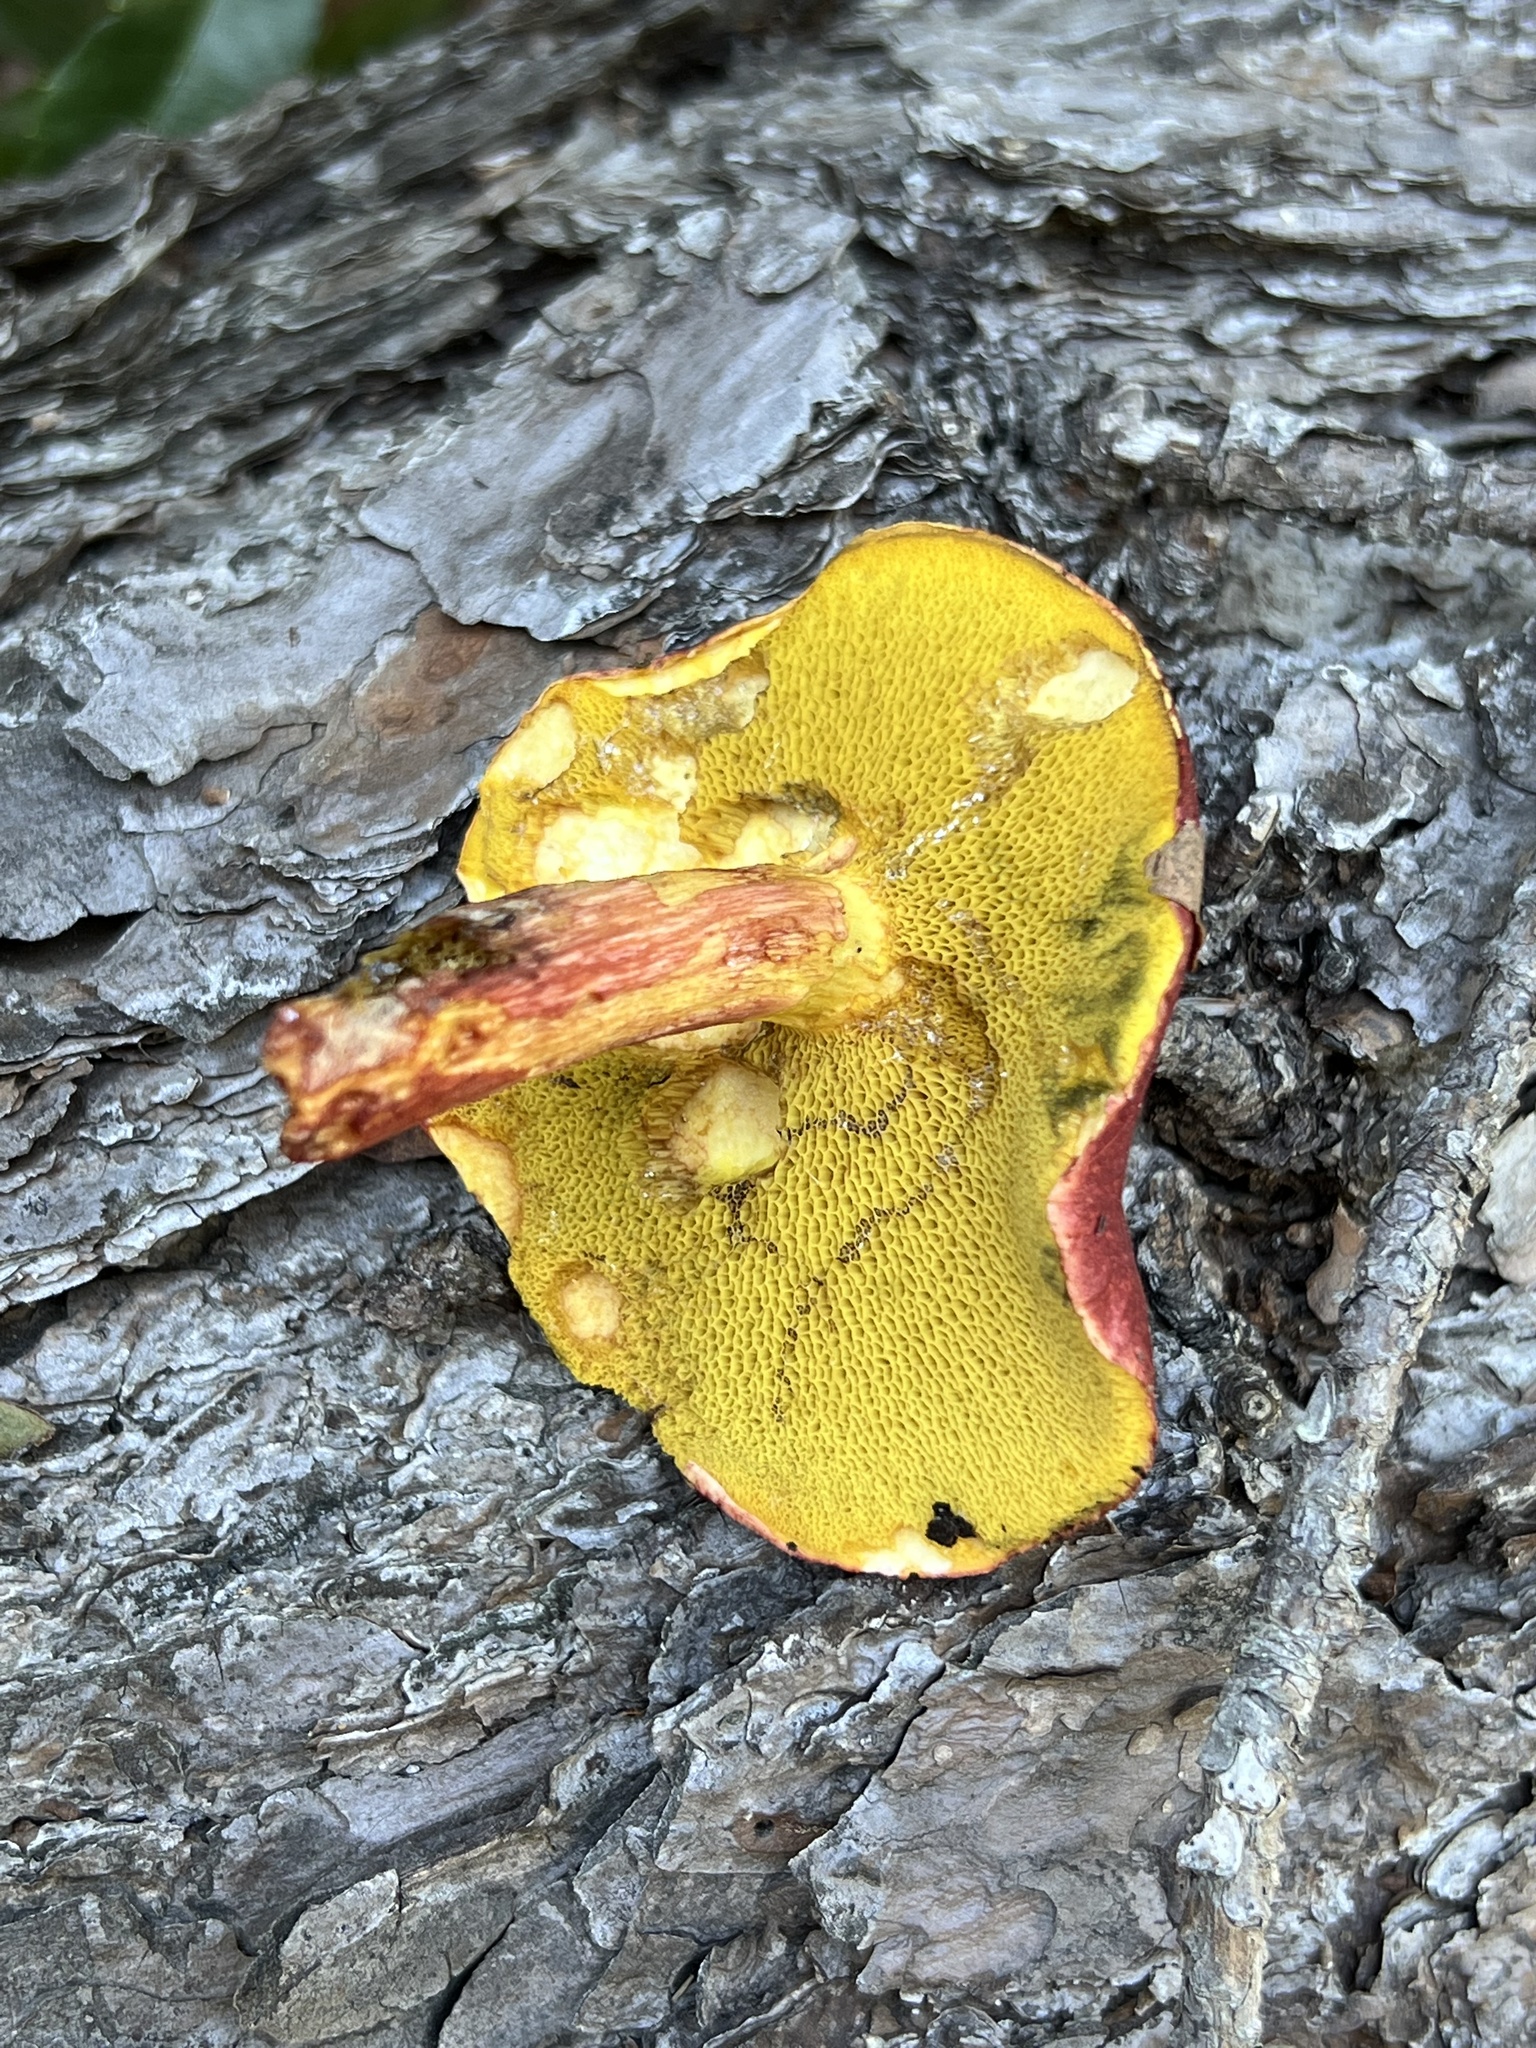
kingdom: Fungi
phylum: Basidiomycota
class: Agaricomycetes
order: Boletales
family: Boletaceae
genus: Boletus
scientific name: Boletus purpureorubellus
